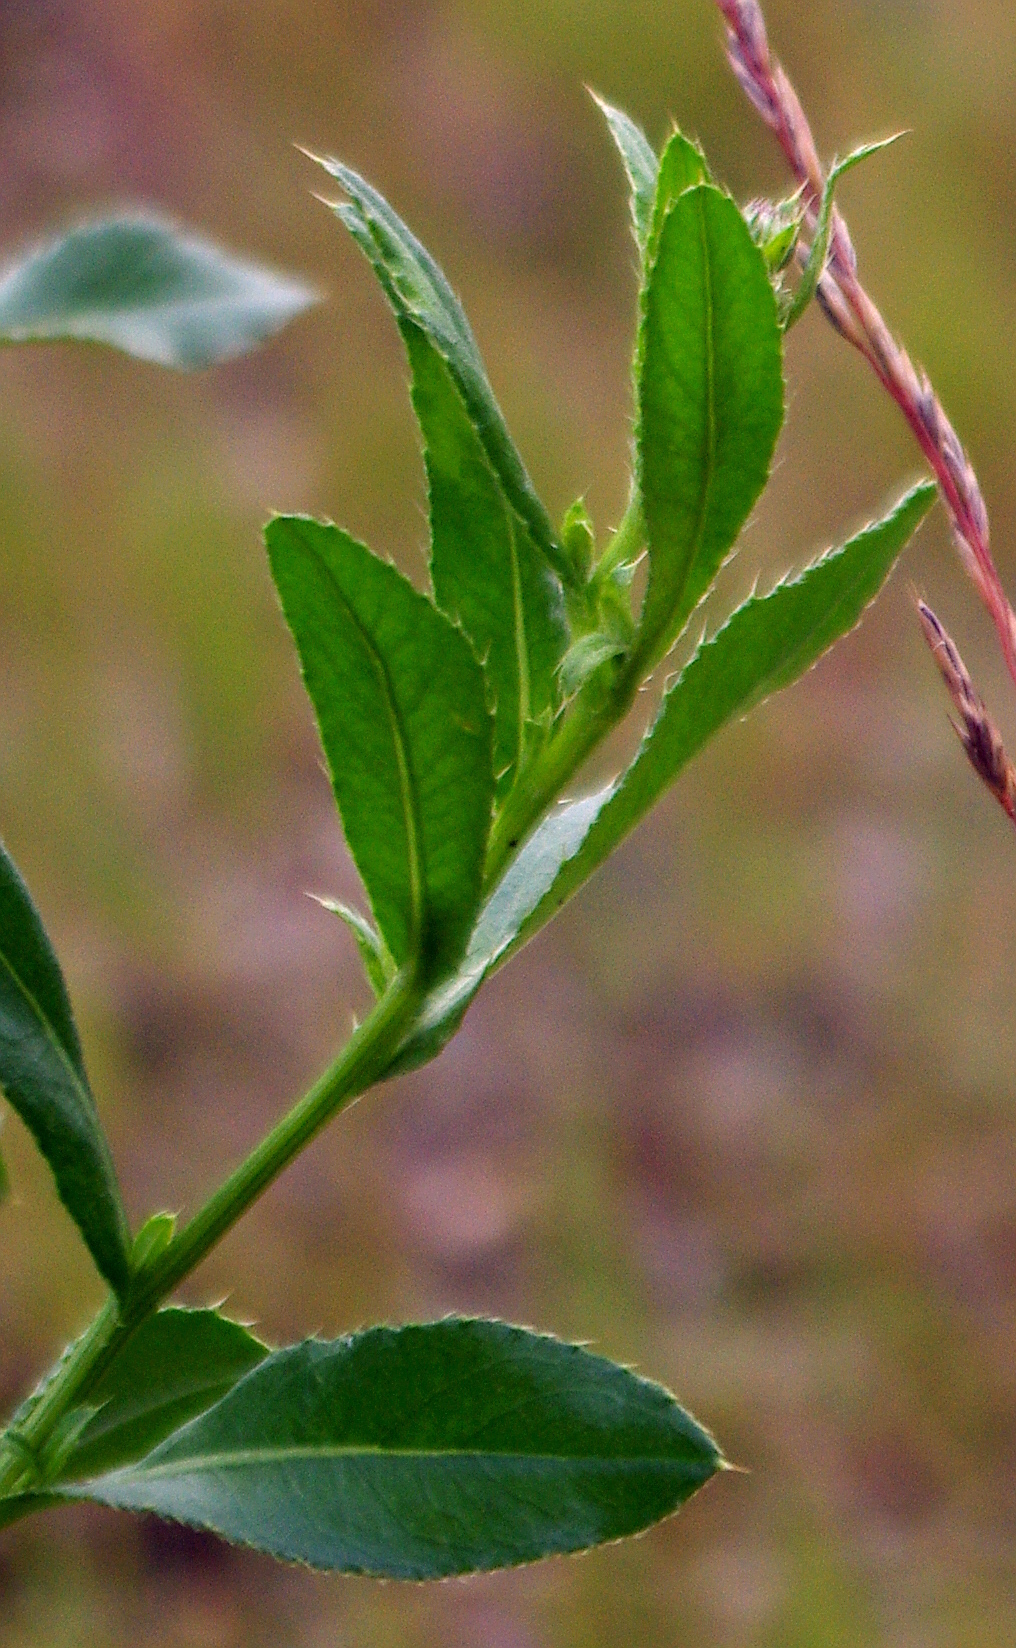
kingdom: Plantae
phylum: Tracheophyta
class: Magnoliopsida
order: Asterales
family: Asteraceae
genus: Cirsium
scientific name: Cirsium arvense
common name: Creeping thistle
